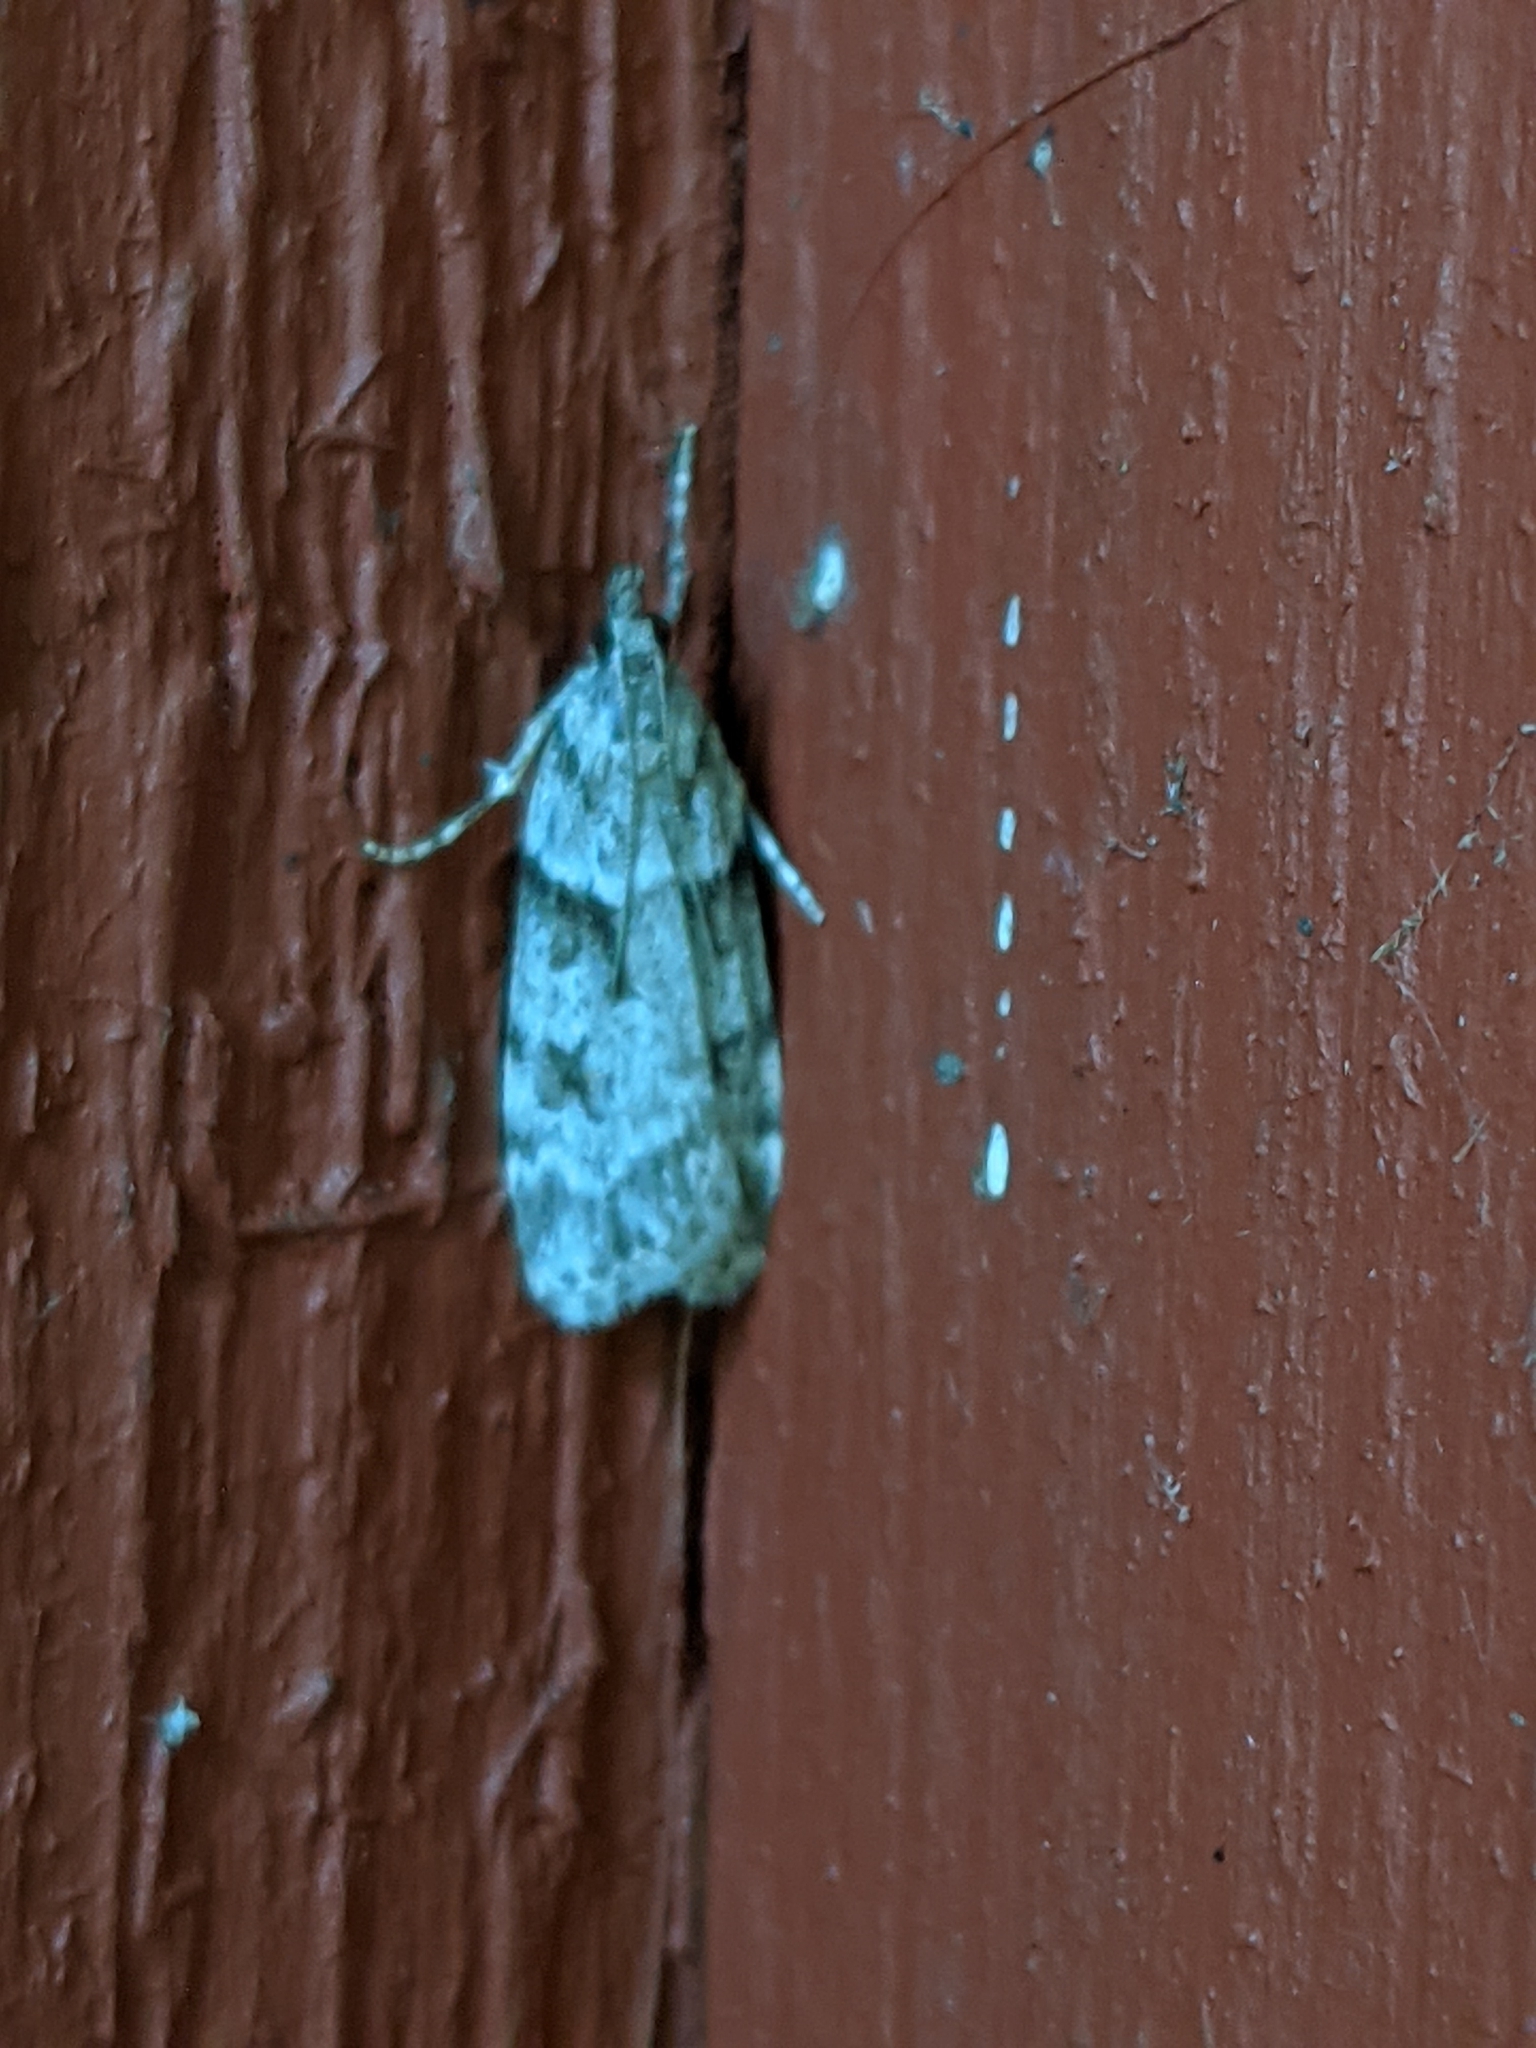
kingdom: Animalia
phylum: Arthropoda
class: Insecta
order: Lepidoptera
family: Crambidae
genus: Scoparia
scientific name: Scoparia biplagialis
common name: Double-striped scoparia moth
